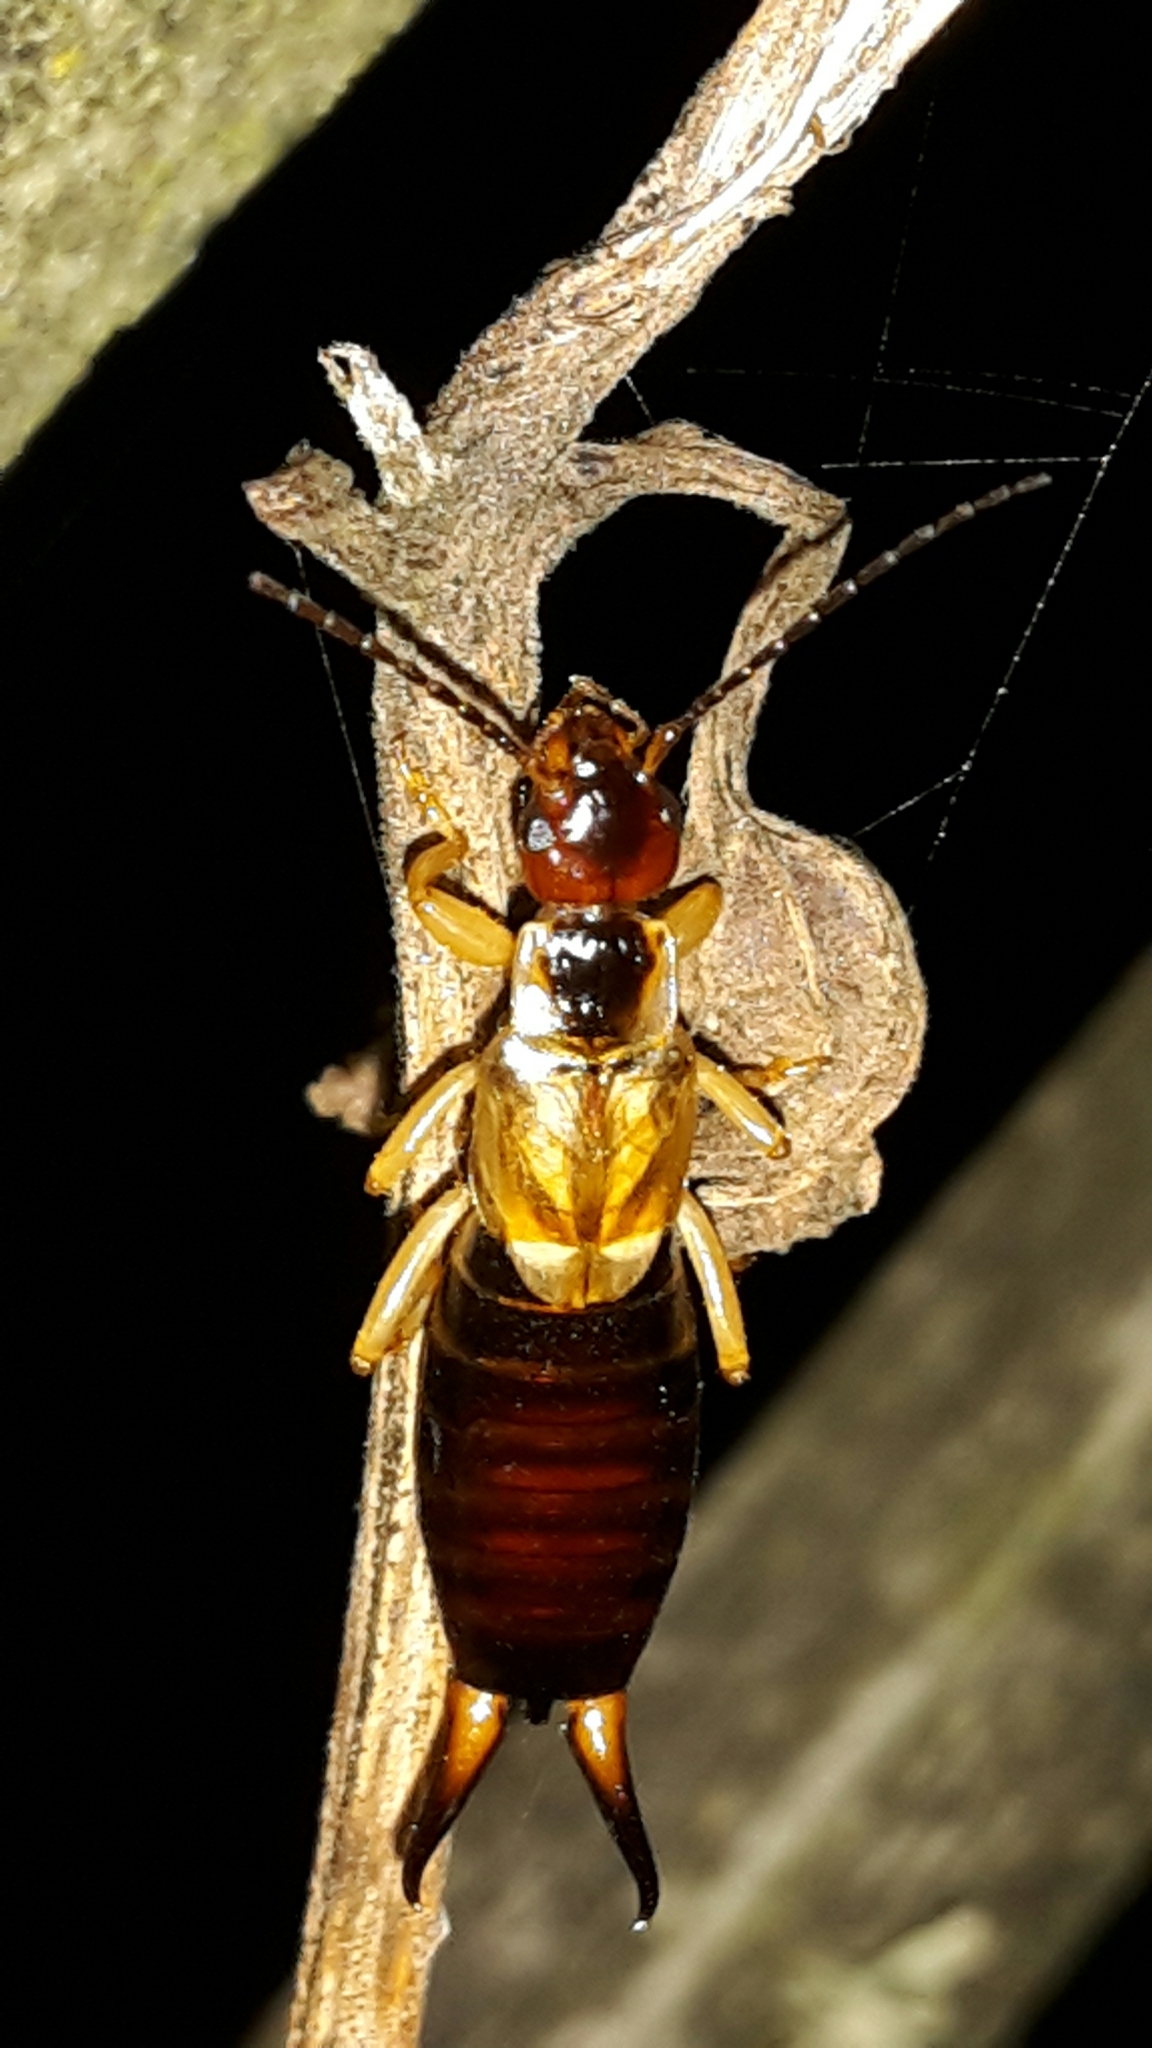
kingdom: Animalia
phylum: Arthropoda
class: Insecta
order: Dermaptera
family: Forficulidae
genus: Forficula
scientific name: Forficula
